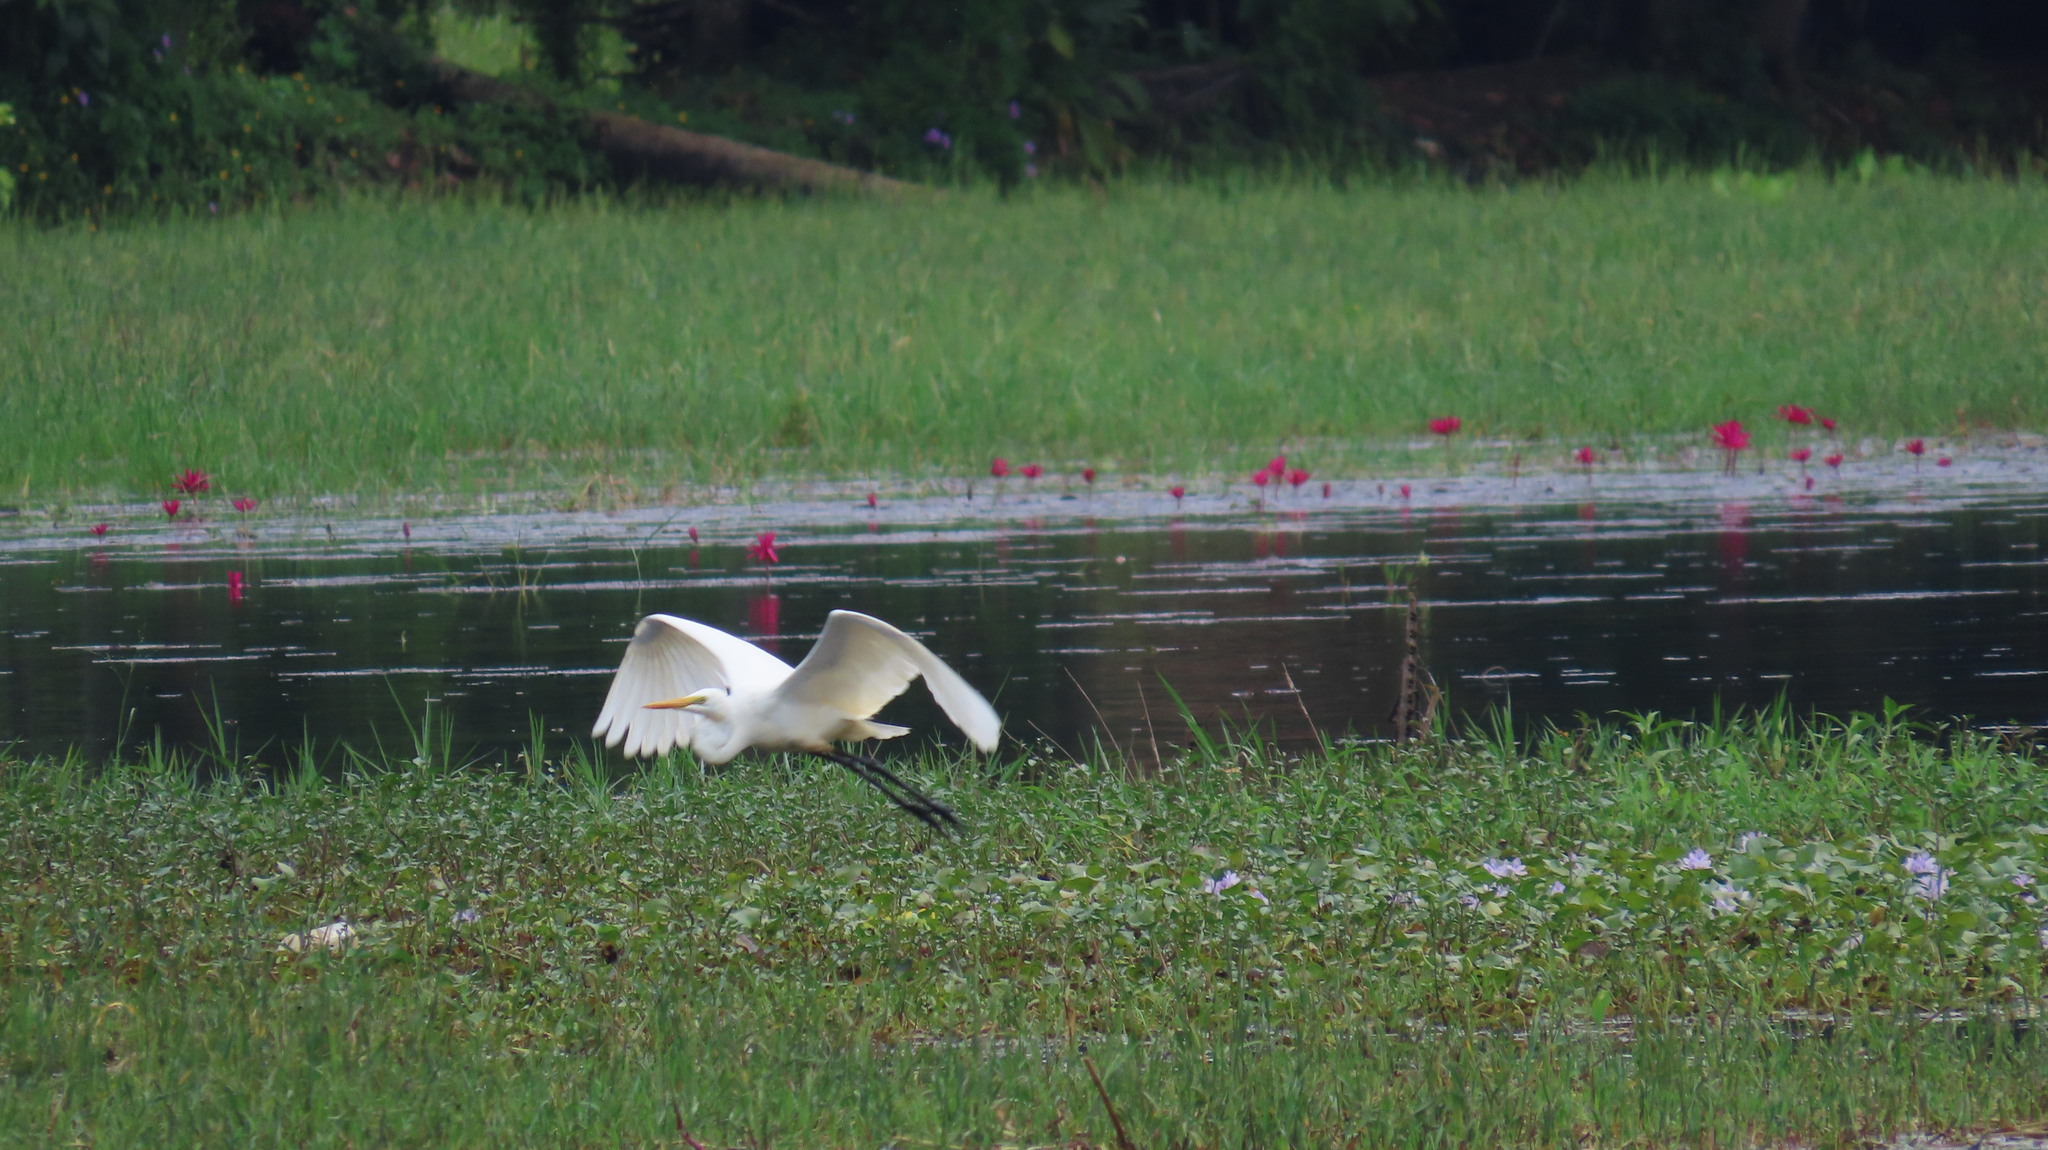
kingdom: Animalia
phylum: Chordata
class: Aves
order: Pelecaniformes
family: Ardeidae
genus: Egretta
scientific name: Egretta intermedia
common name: Intermediate egret
